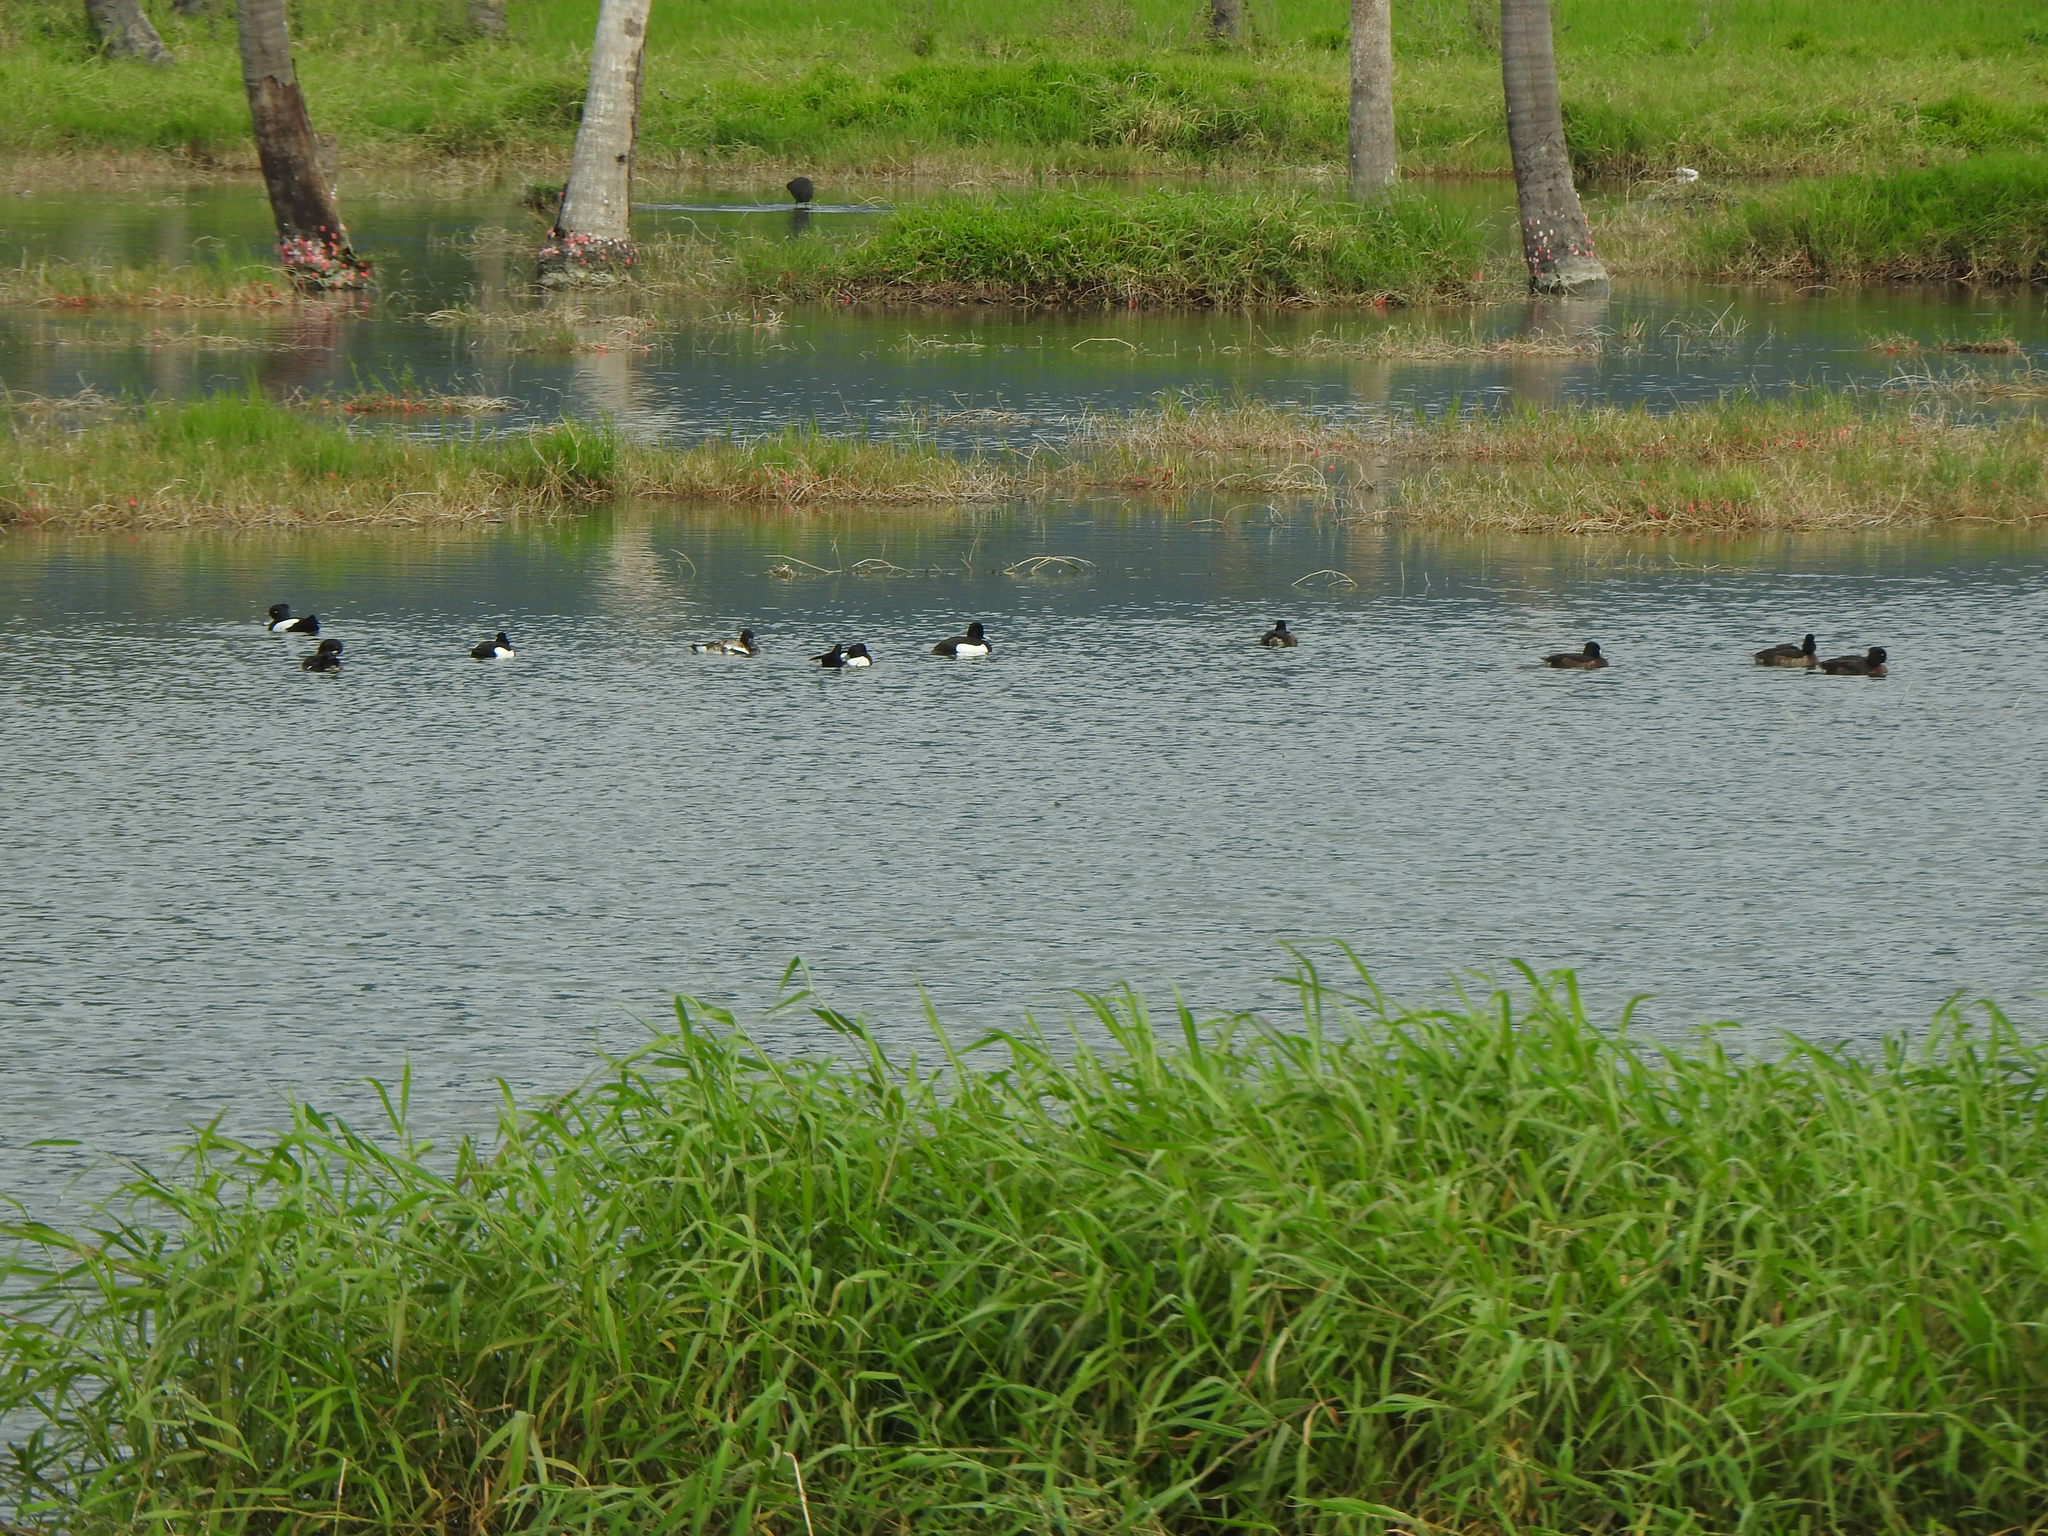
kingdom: Animalia
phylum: Chordata
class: Aves
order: Anseriformes
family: Anatidae
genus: Aythya
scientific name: Aythya fuligula
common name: Tufted duck
